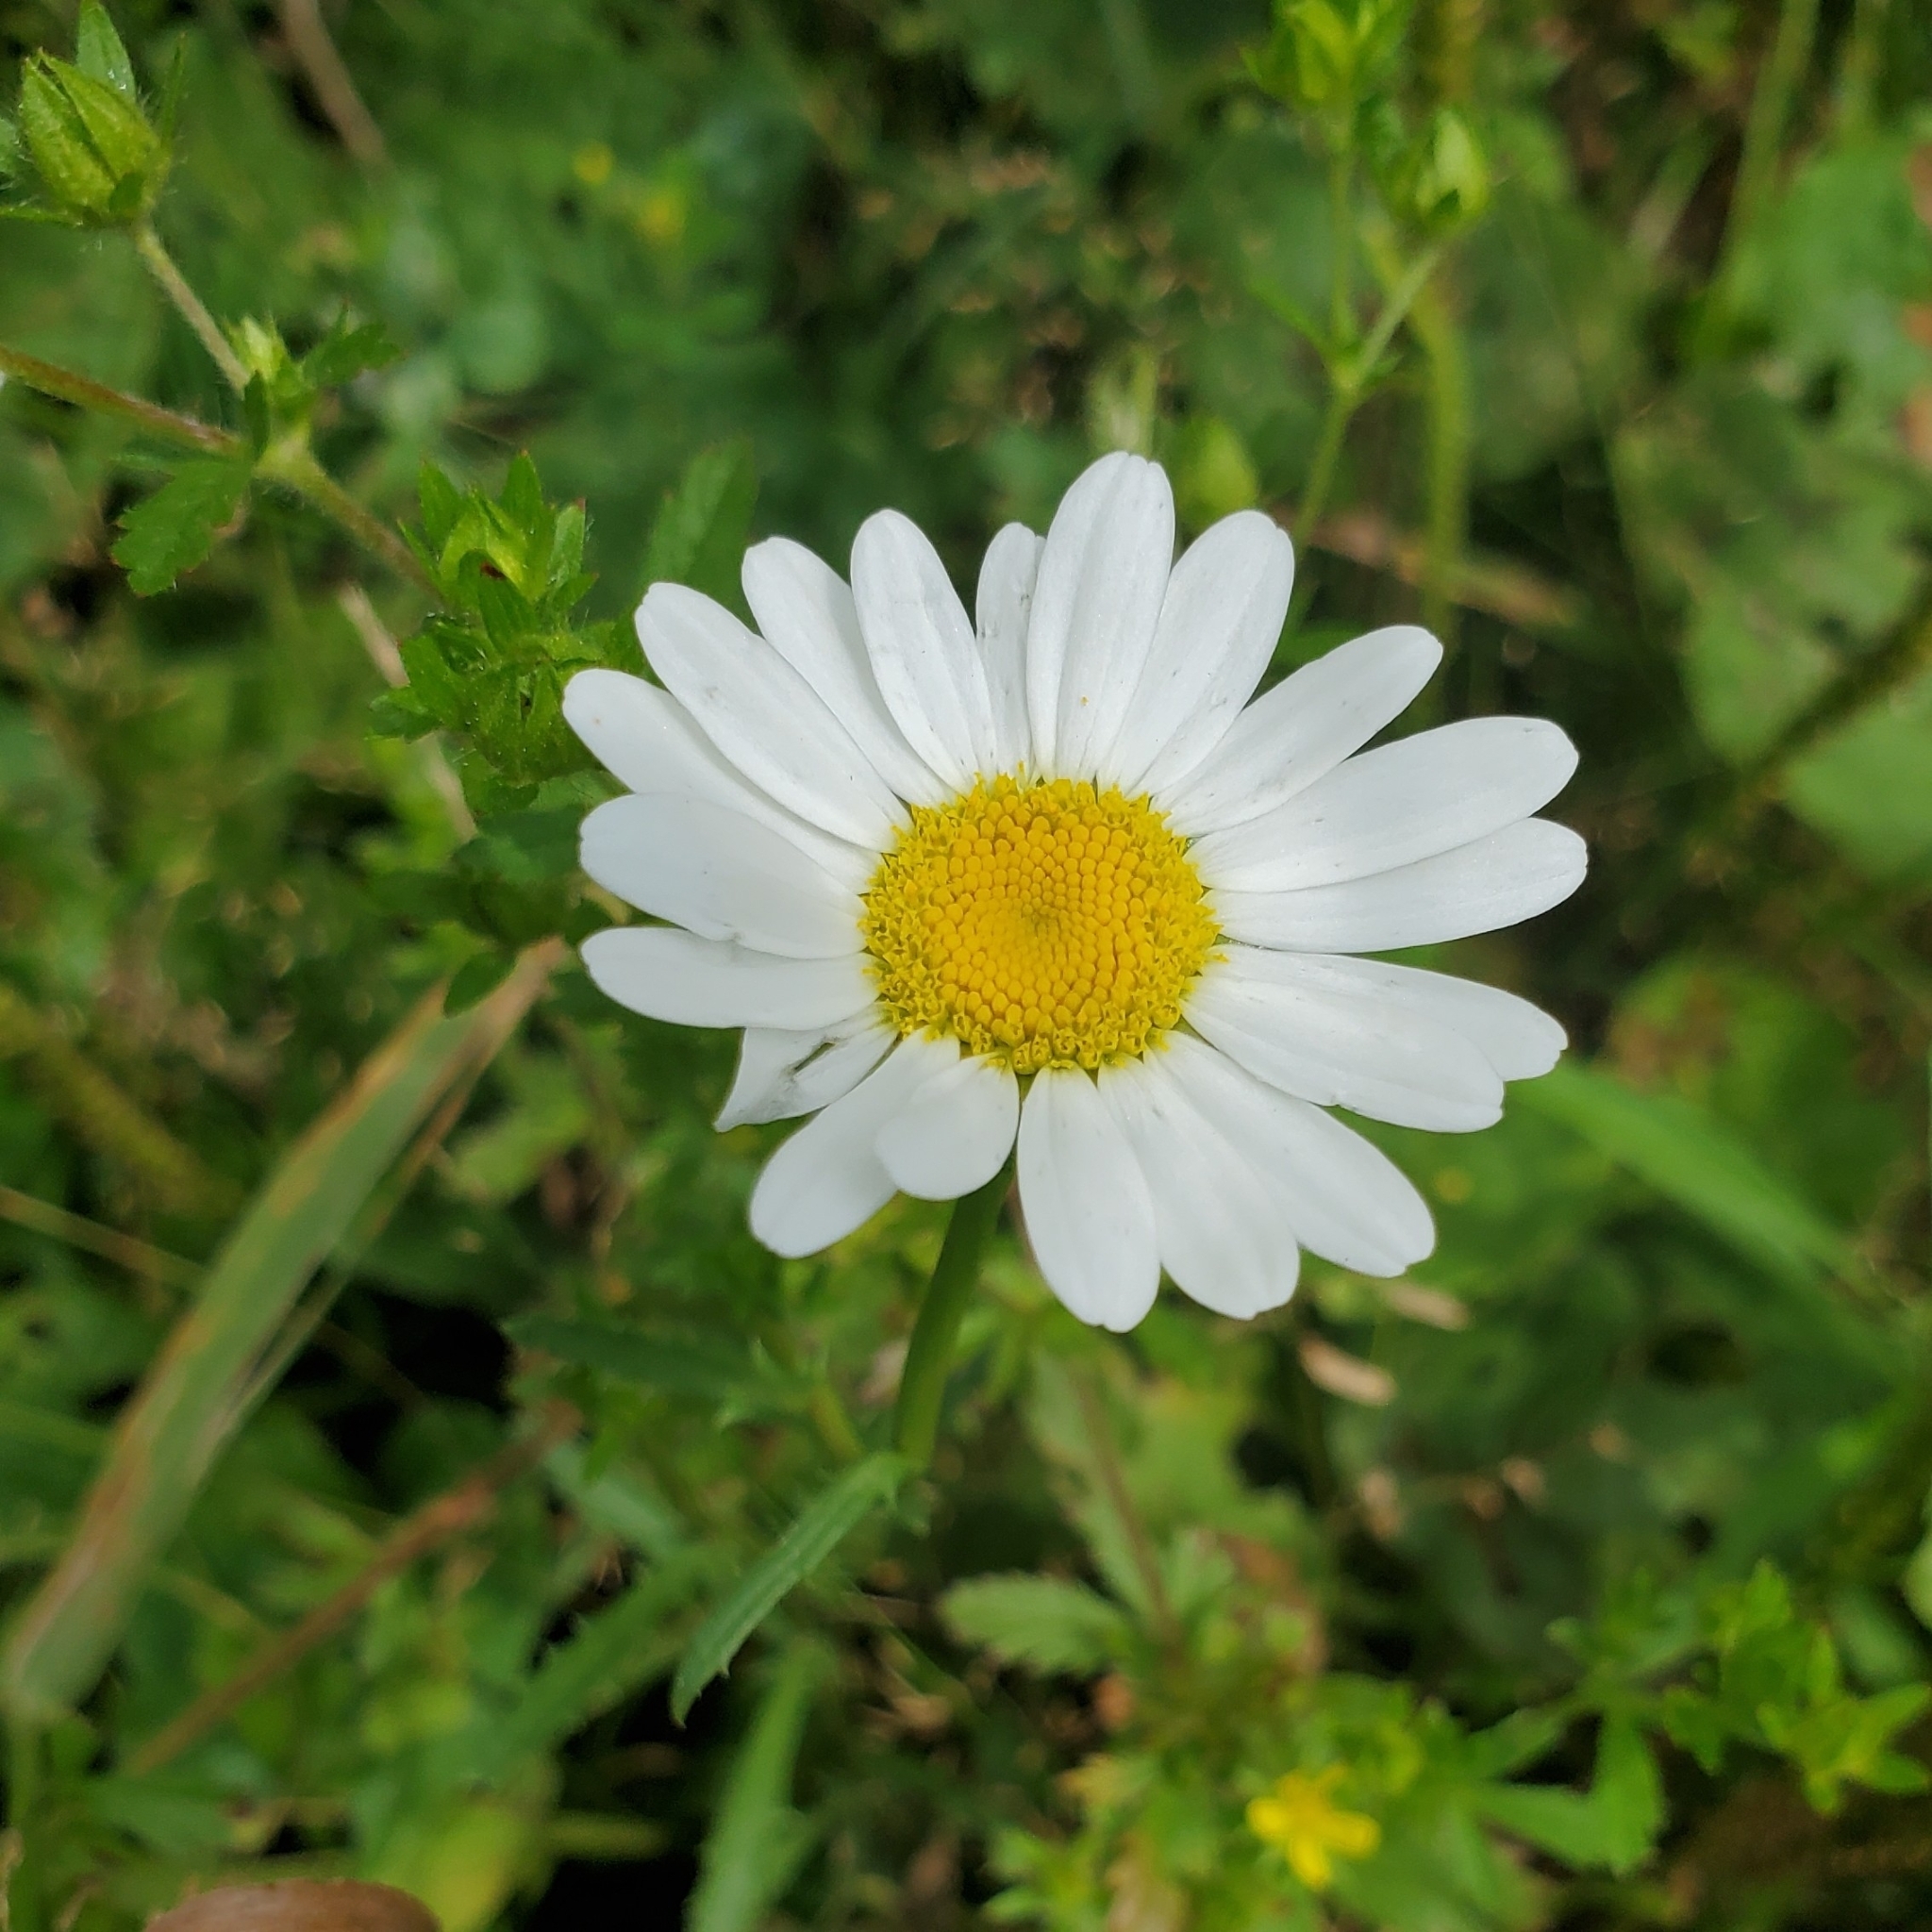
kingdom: Plantae
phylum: Tracheophyta
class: Magnoliopsida
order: Asterales
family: Asteraceae
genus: Leucanthemum
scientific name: Leucanthemum vulgare
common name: Oxeye daisy
